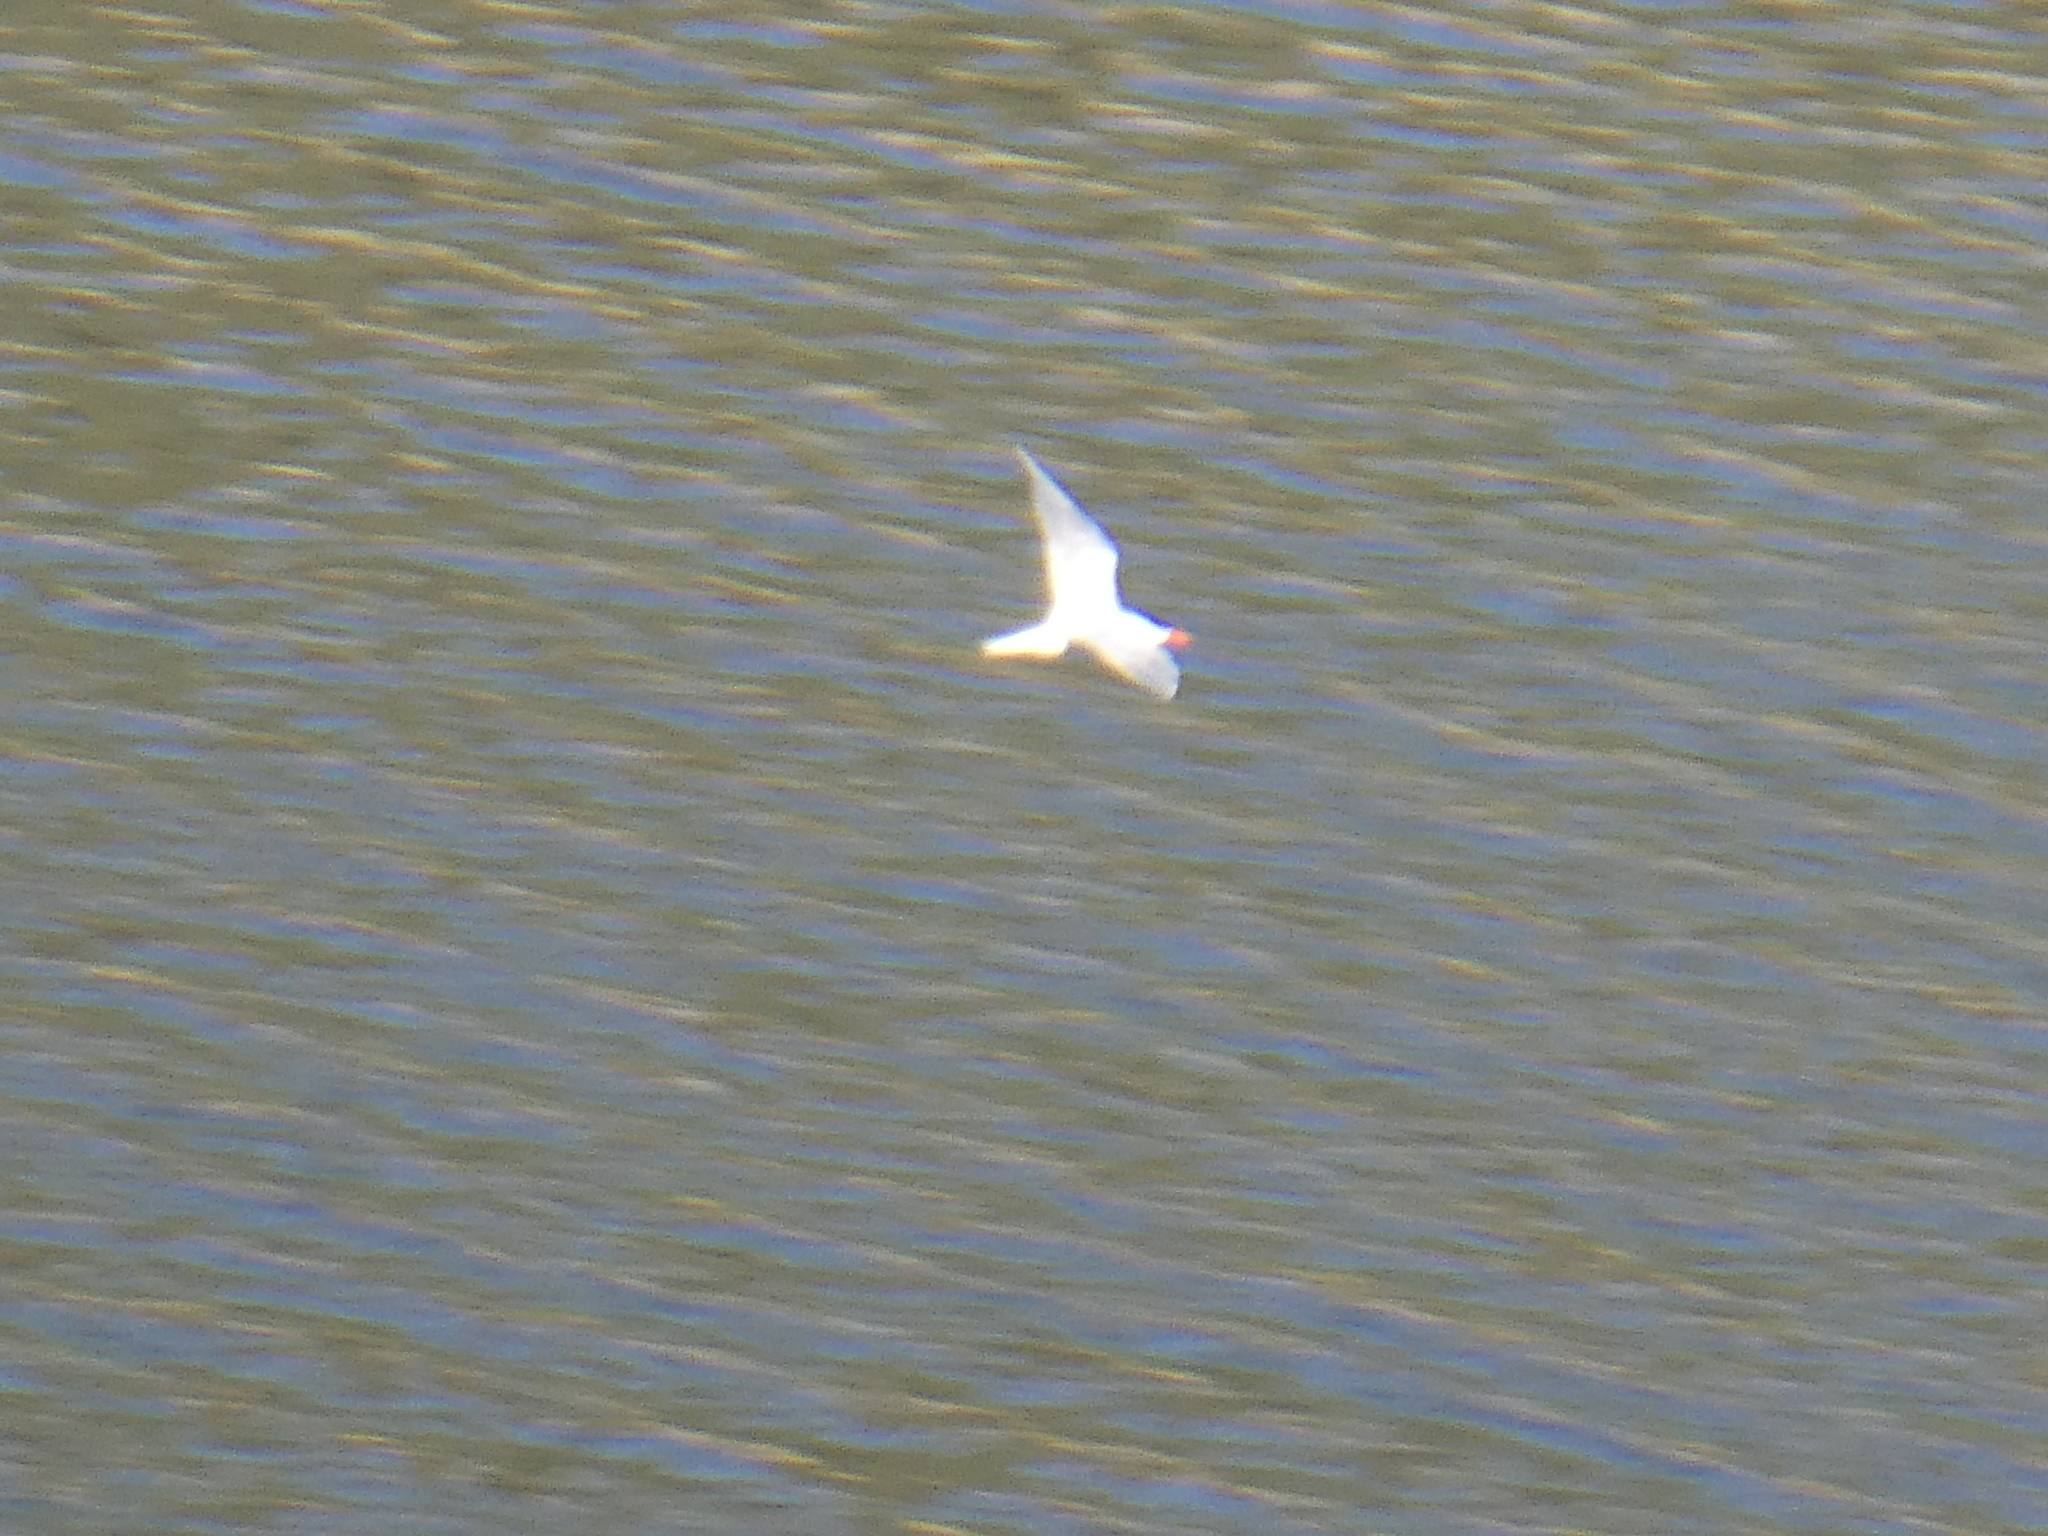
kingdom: Animalia
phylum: Chordata
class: Aves
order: Charadriiformes
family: Laridae
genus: Hydroprogne
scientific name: Hydroprogne caspia
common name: Caspian tern
